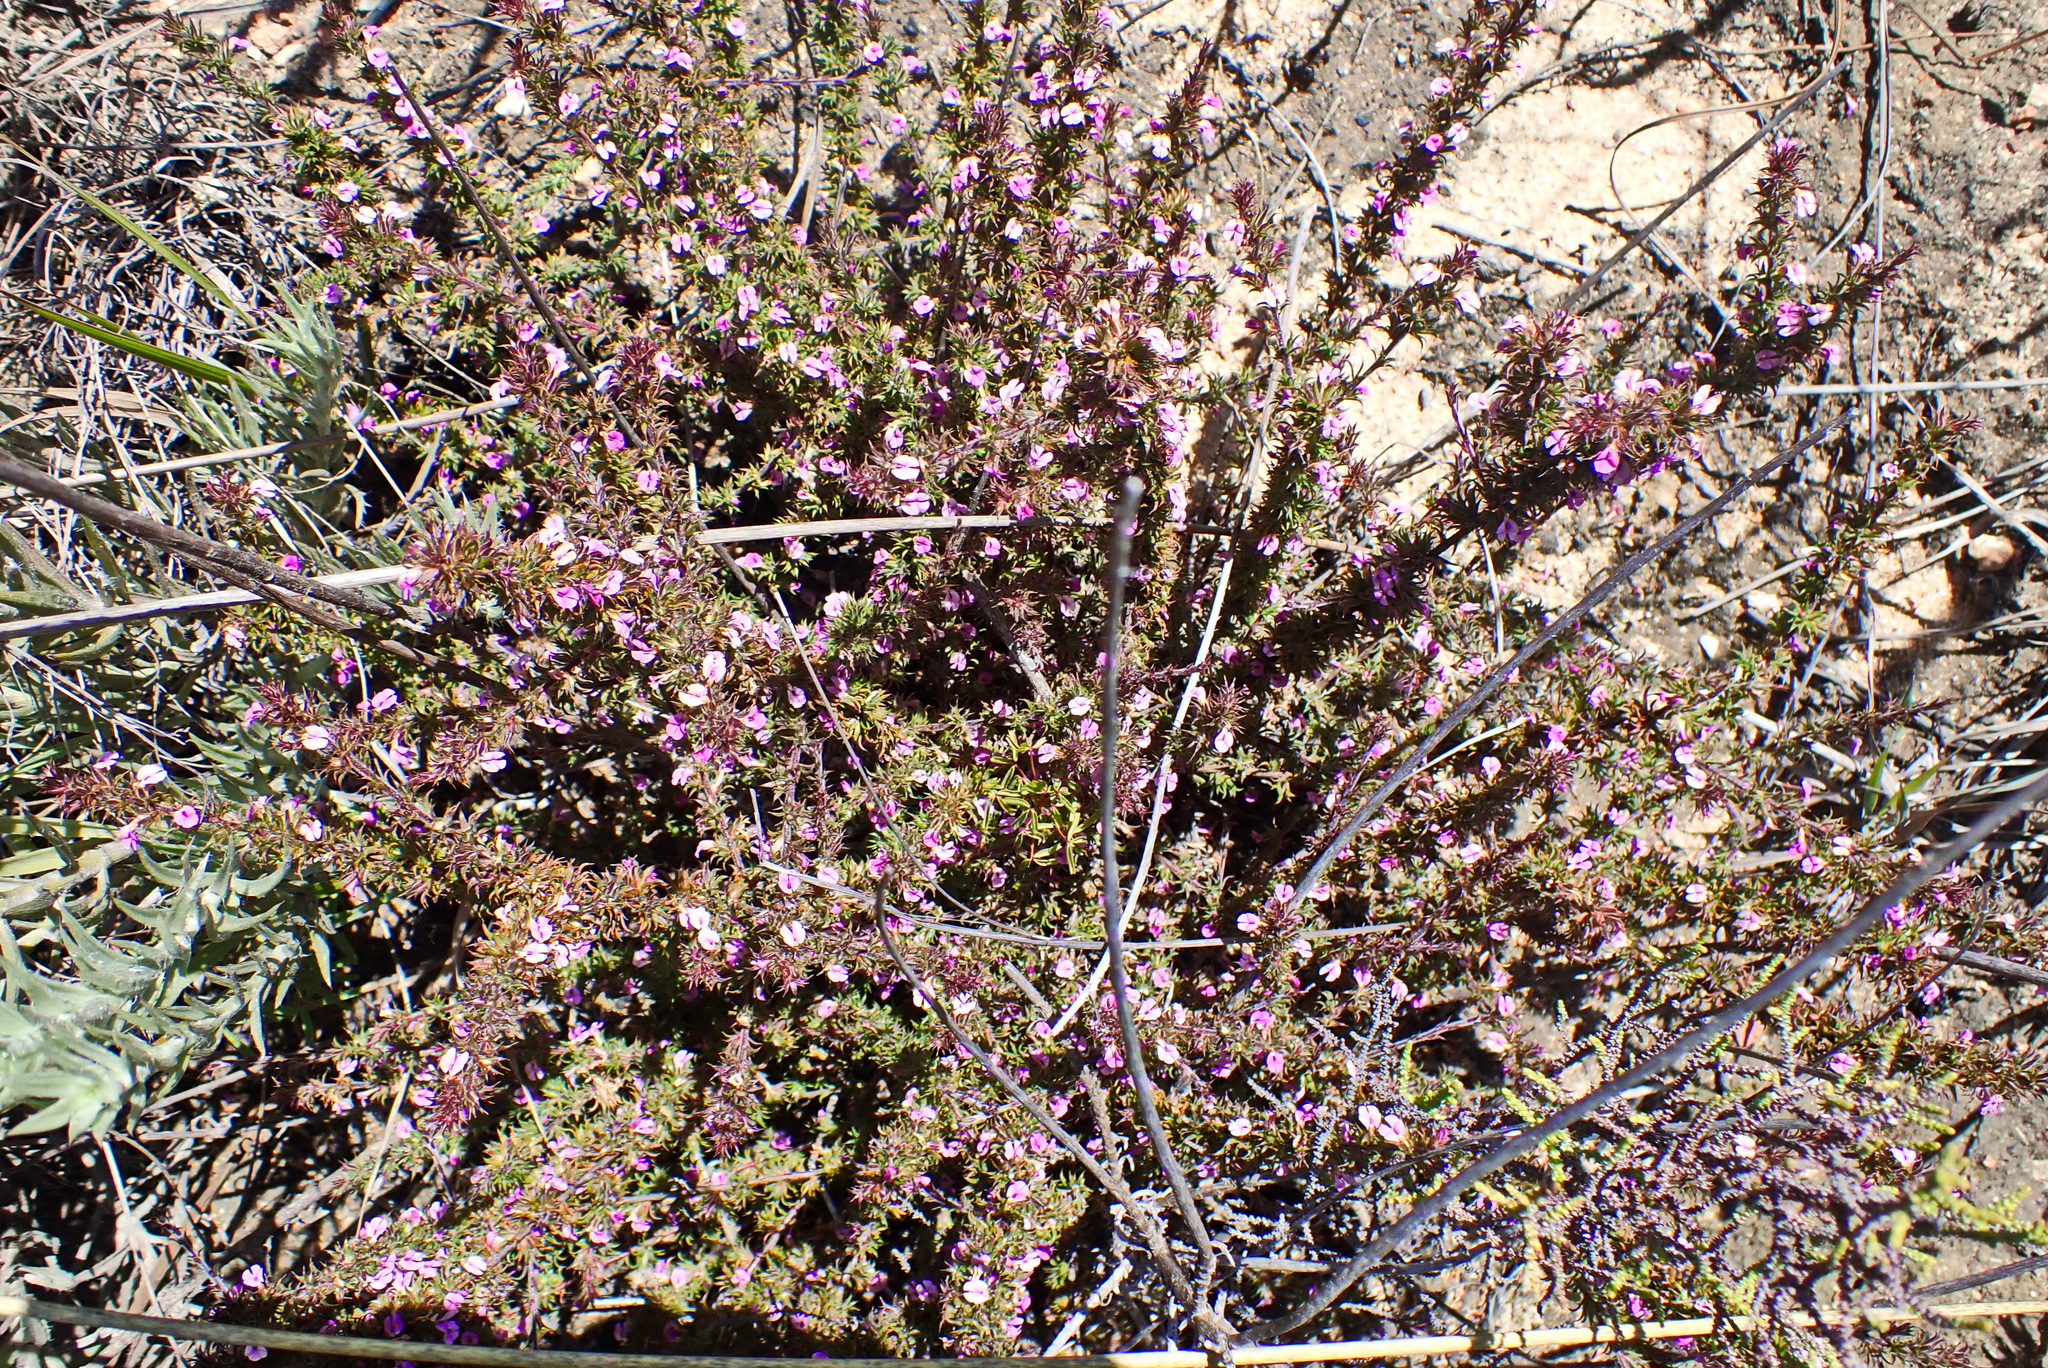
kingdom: Plantae
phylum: Tracheophyta
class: Magnoliopsida
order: Fabales
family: Polygalaceae
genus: Muraltia
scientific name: Muraltia squarrosa
